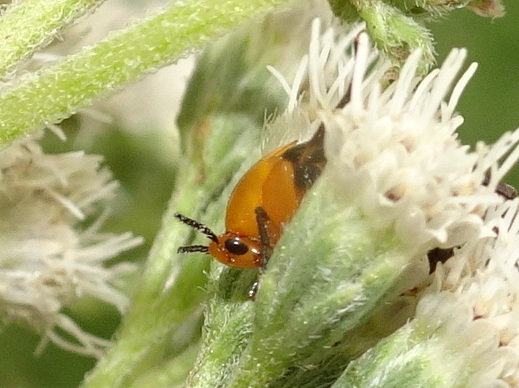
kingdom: Animalia
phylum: Arthropoda
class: Insecta
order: Coleoptera
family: Ripiphoridae
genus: Macrosiagon
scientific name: Macrosiagon limbatum
